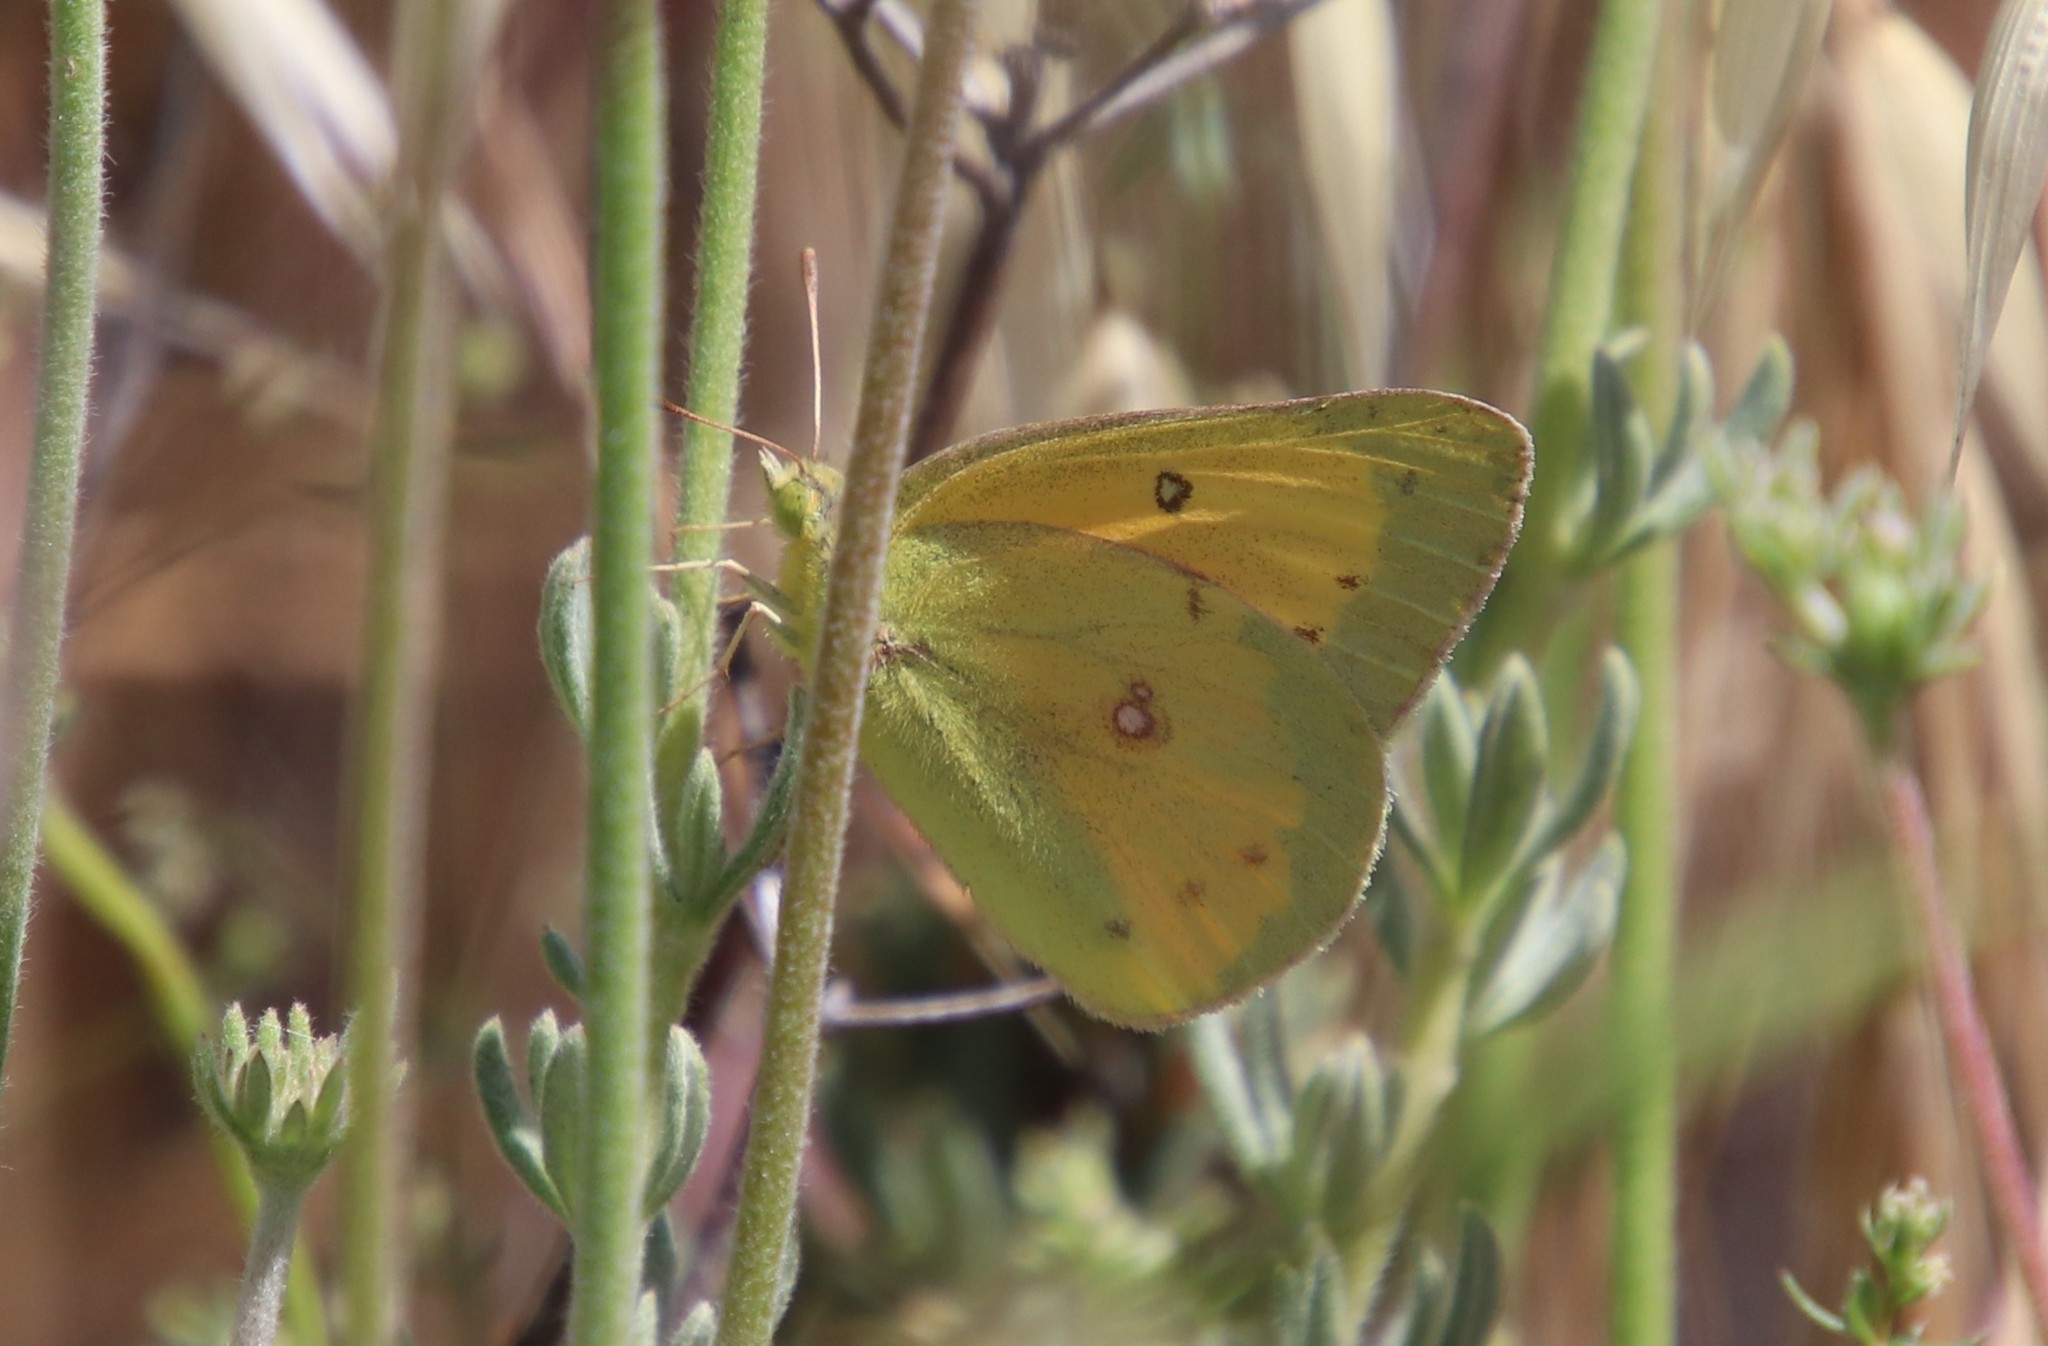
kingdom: Animalia
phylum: Arthropoda
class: Insecta
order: Lepidoptera
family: Pieridae
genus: Colias
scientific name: Colias eurytheme
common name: Alfalfa butterfly
